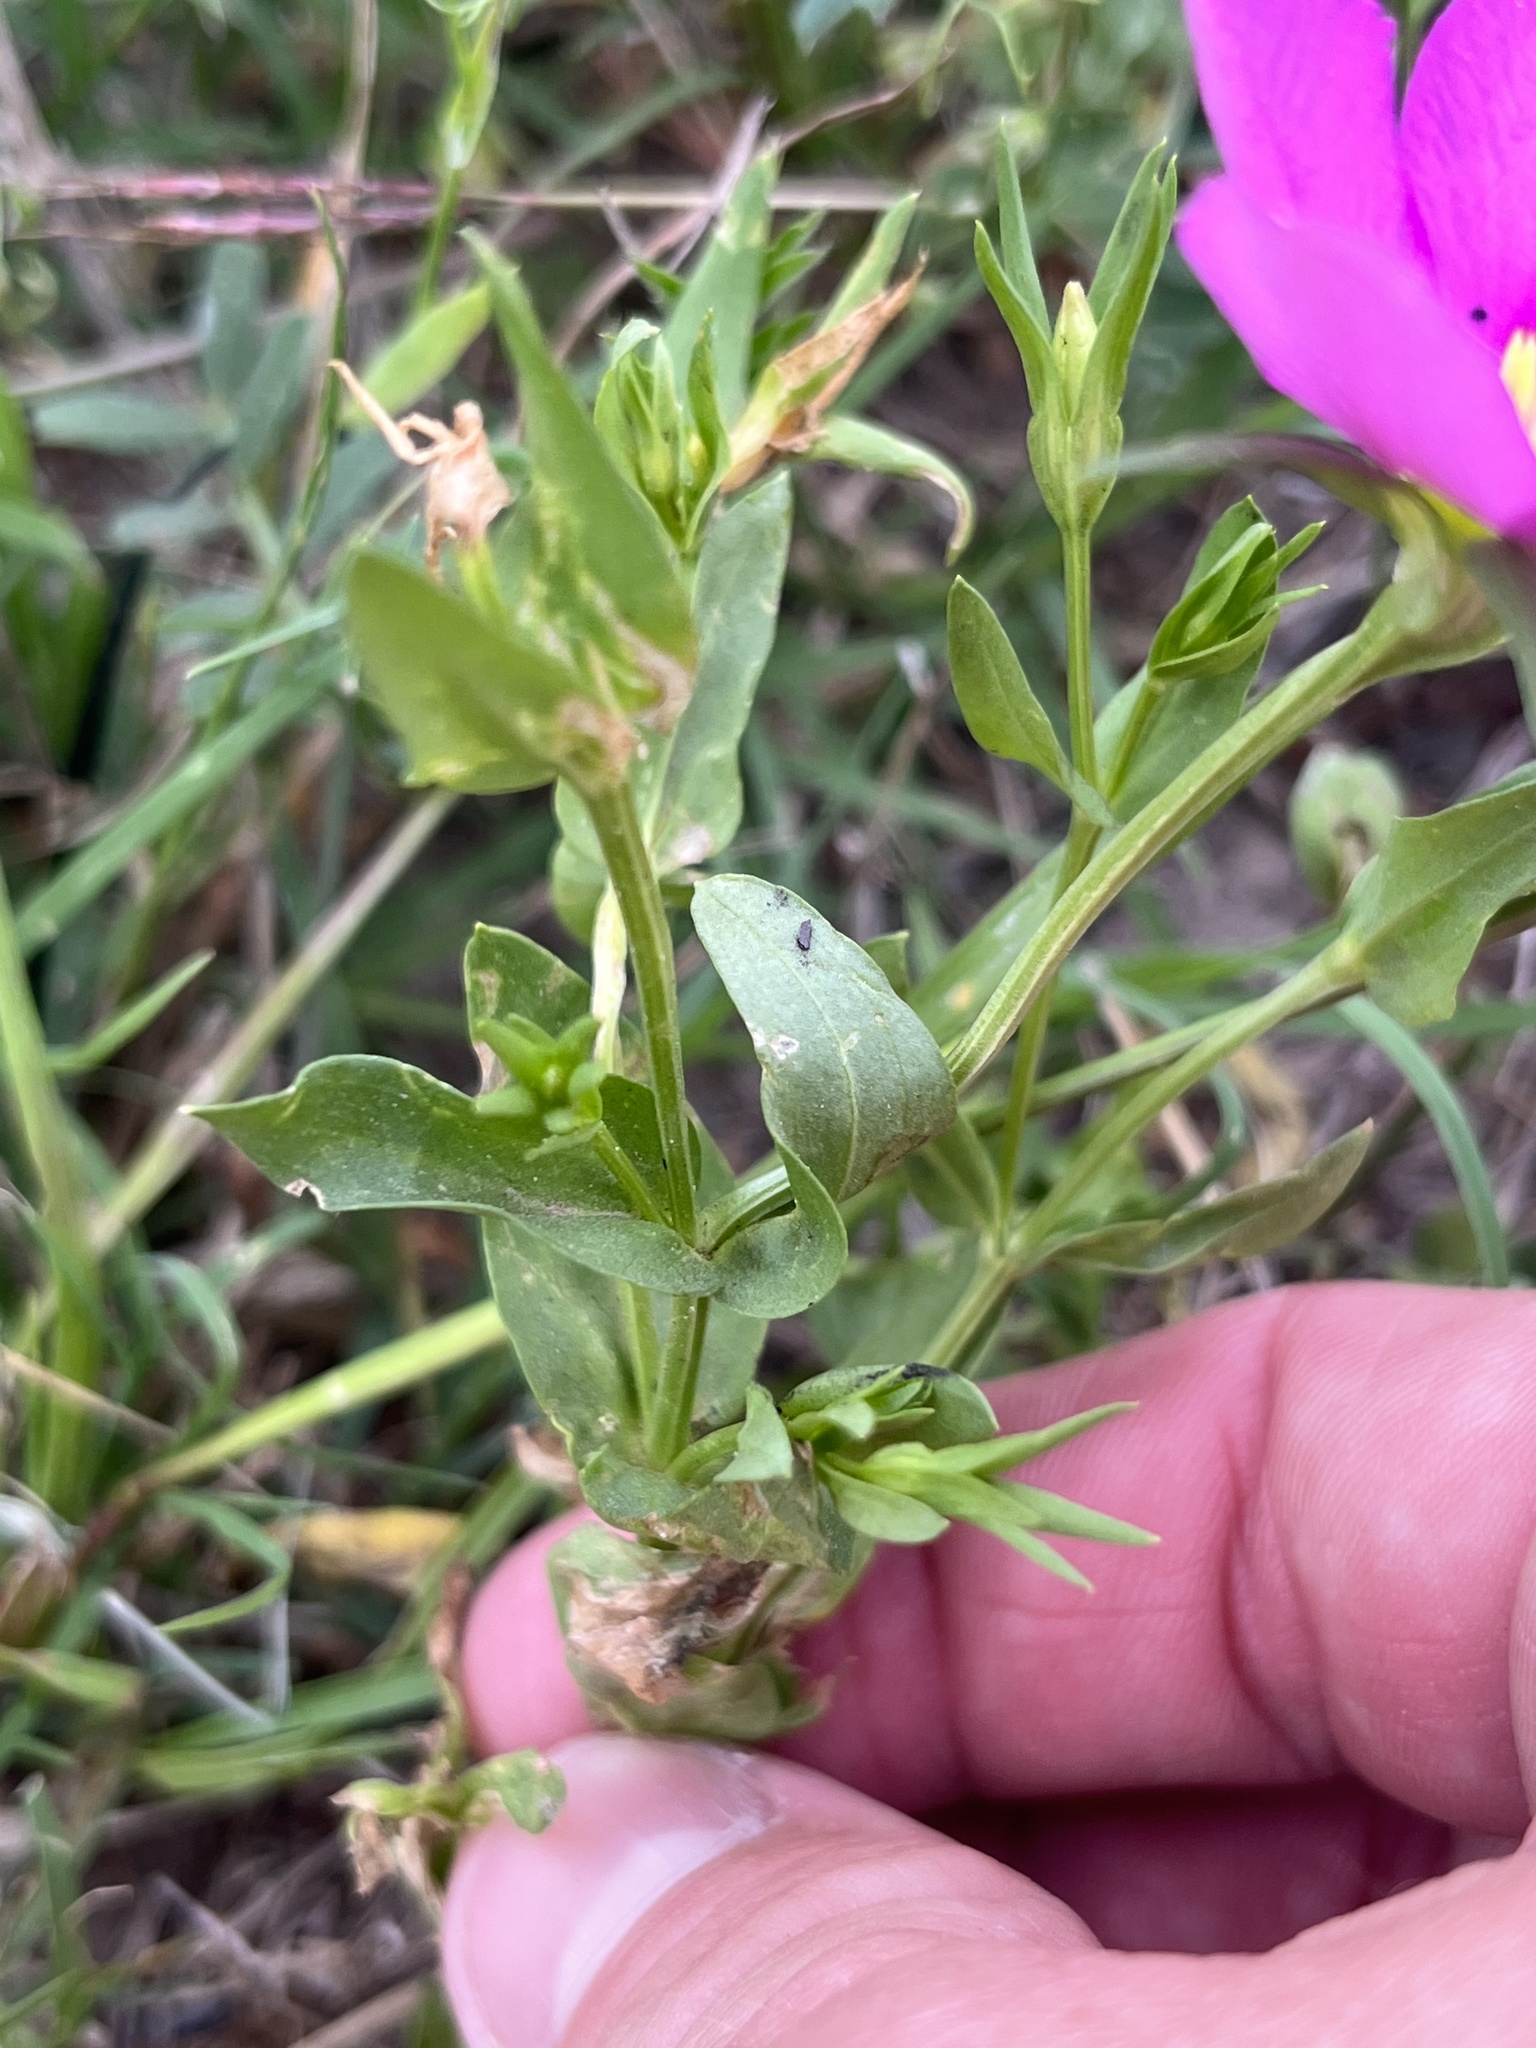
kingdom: Plantae
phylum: Tracheophyta
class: Magnoliopsida
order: Gentianales
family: Gentianaceae
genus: Sabatia
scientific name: Sabatia campestris
